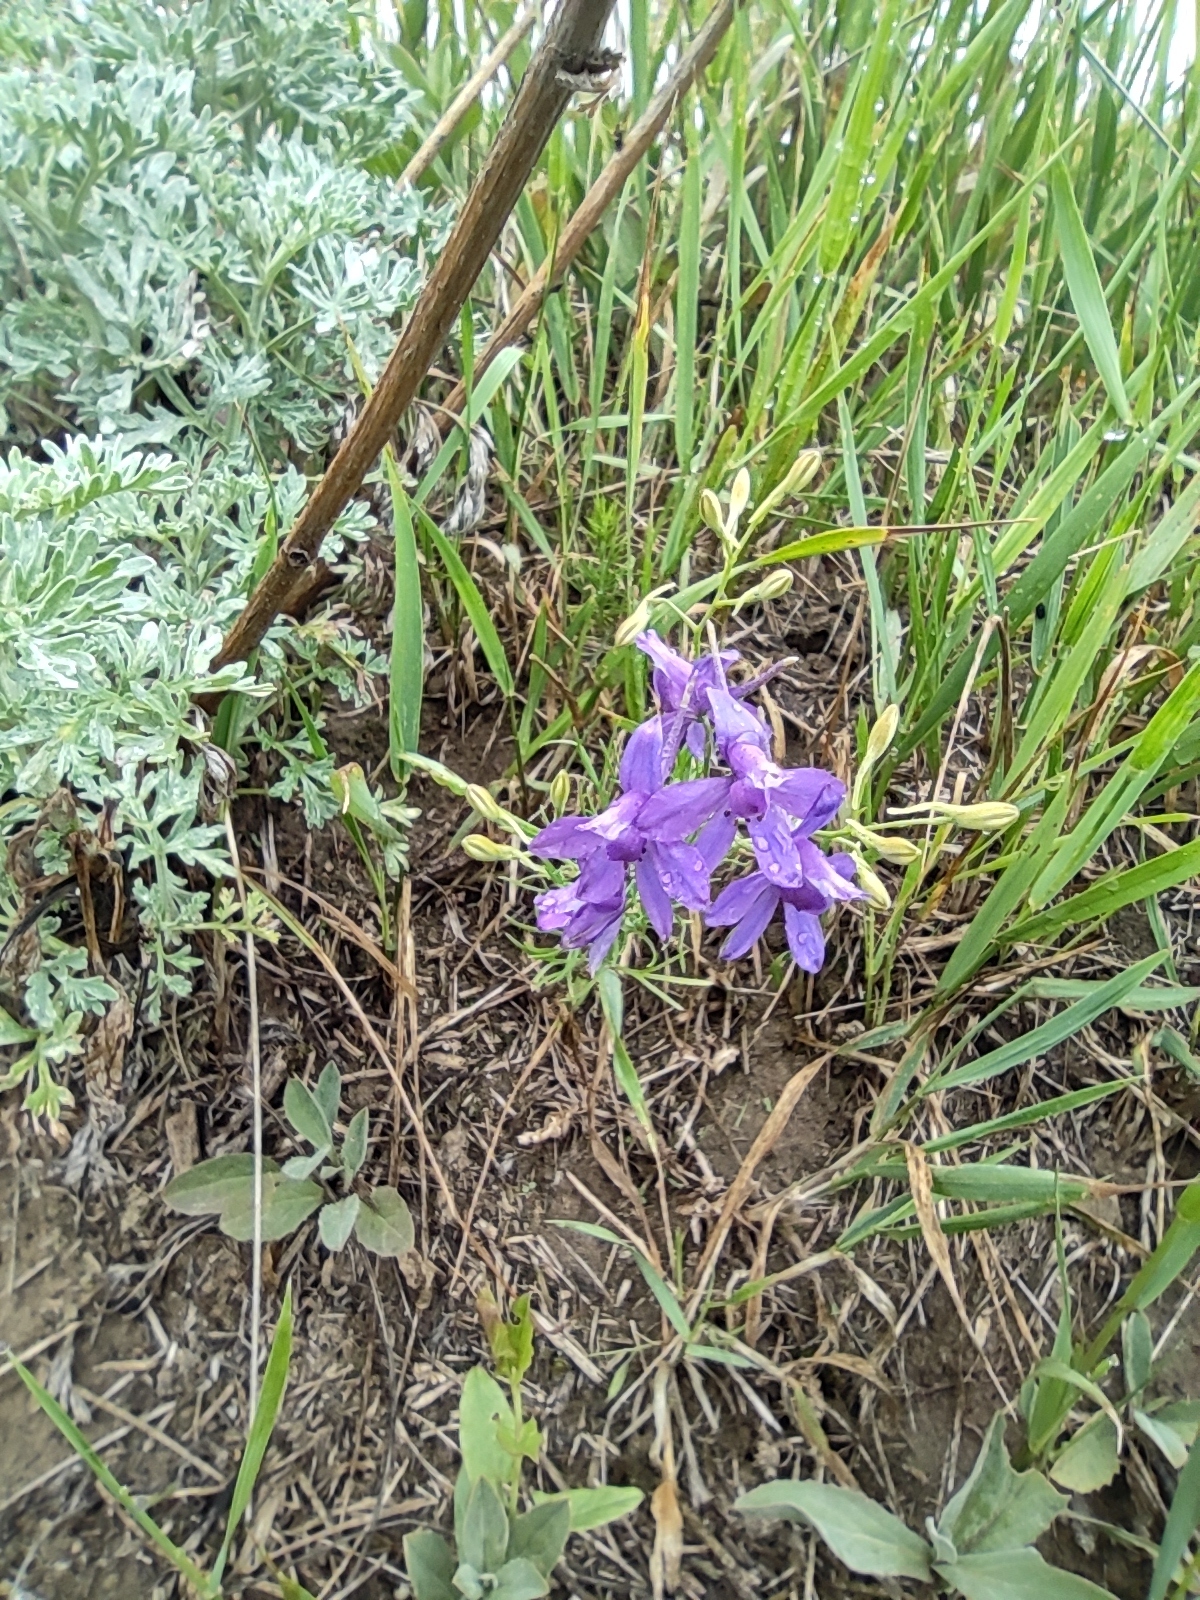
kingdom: Plantae
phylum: Tracheophyta
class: Magnoliopsida
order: Ranunculales
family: Ranunculaceae
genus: Delphinium
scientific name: Delphinium consolida
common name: Branching larkspur
